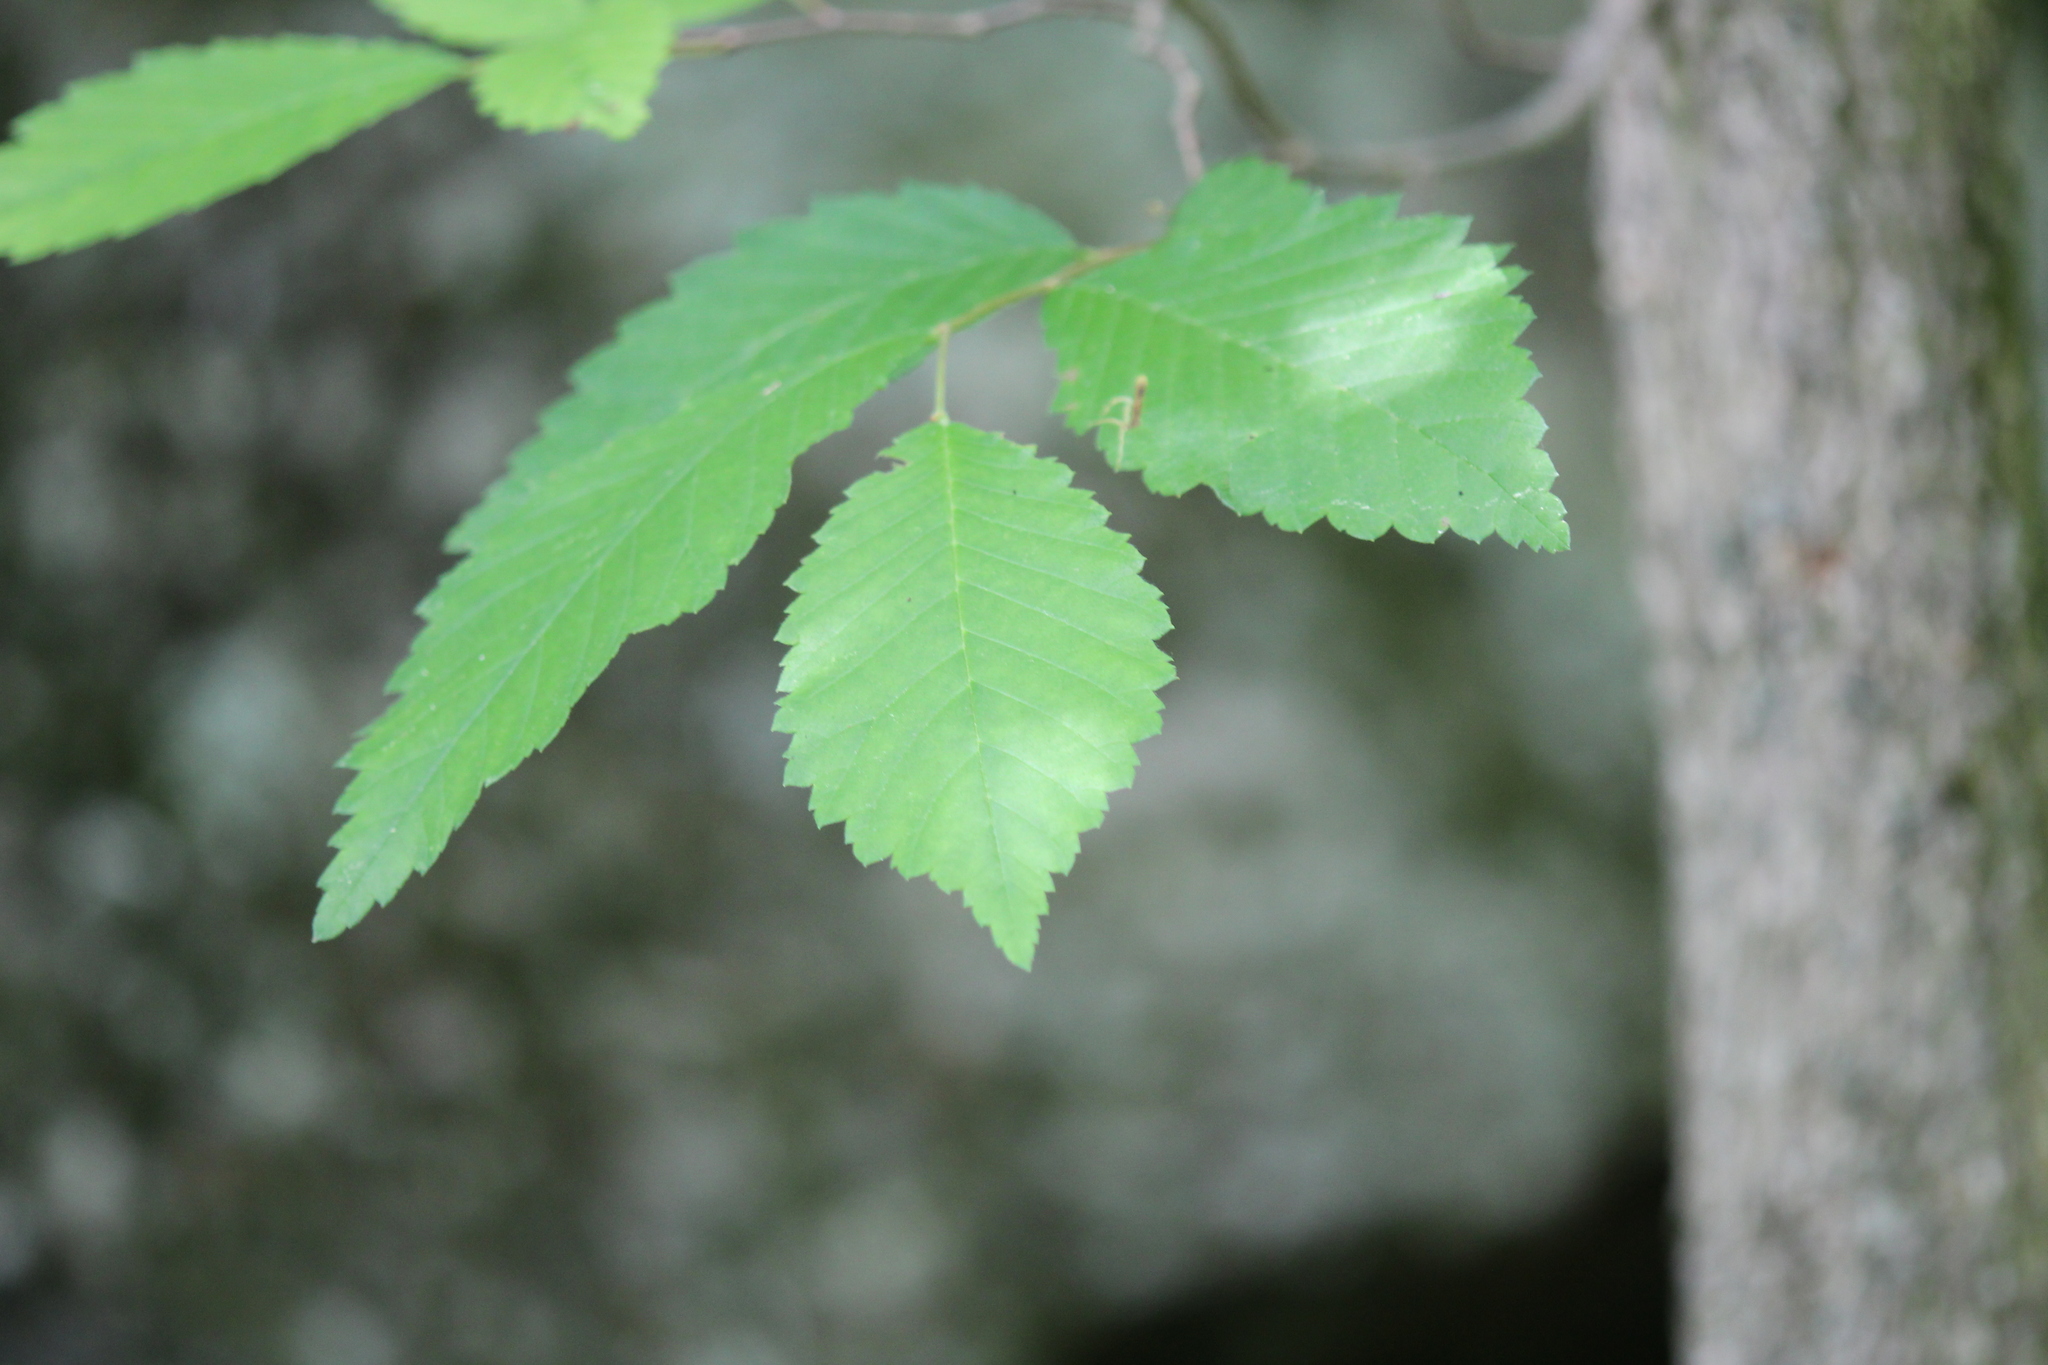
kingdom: Plantae
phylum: Tracheophyta
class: Magnoliopsida
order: Rosales
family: Ulmaceae
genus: Ulmus
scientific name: Ulmus americana
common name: American elm
